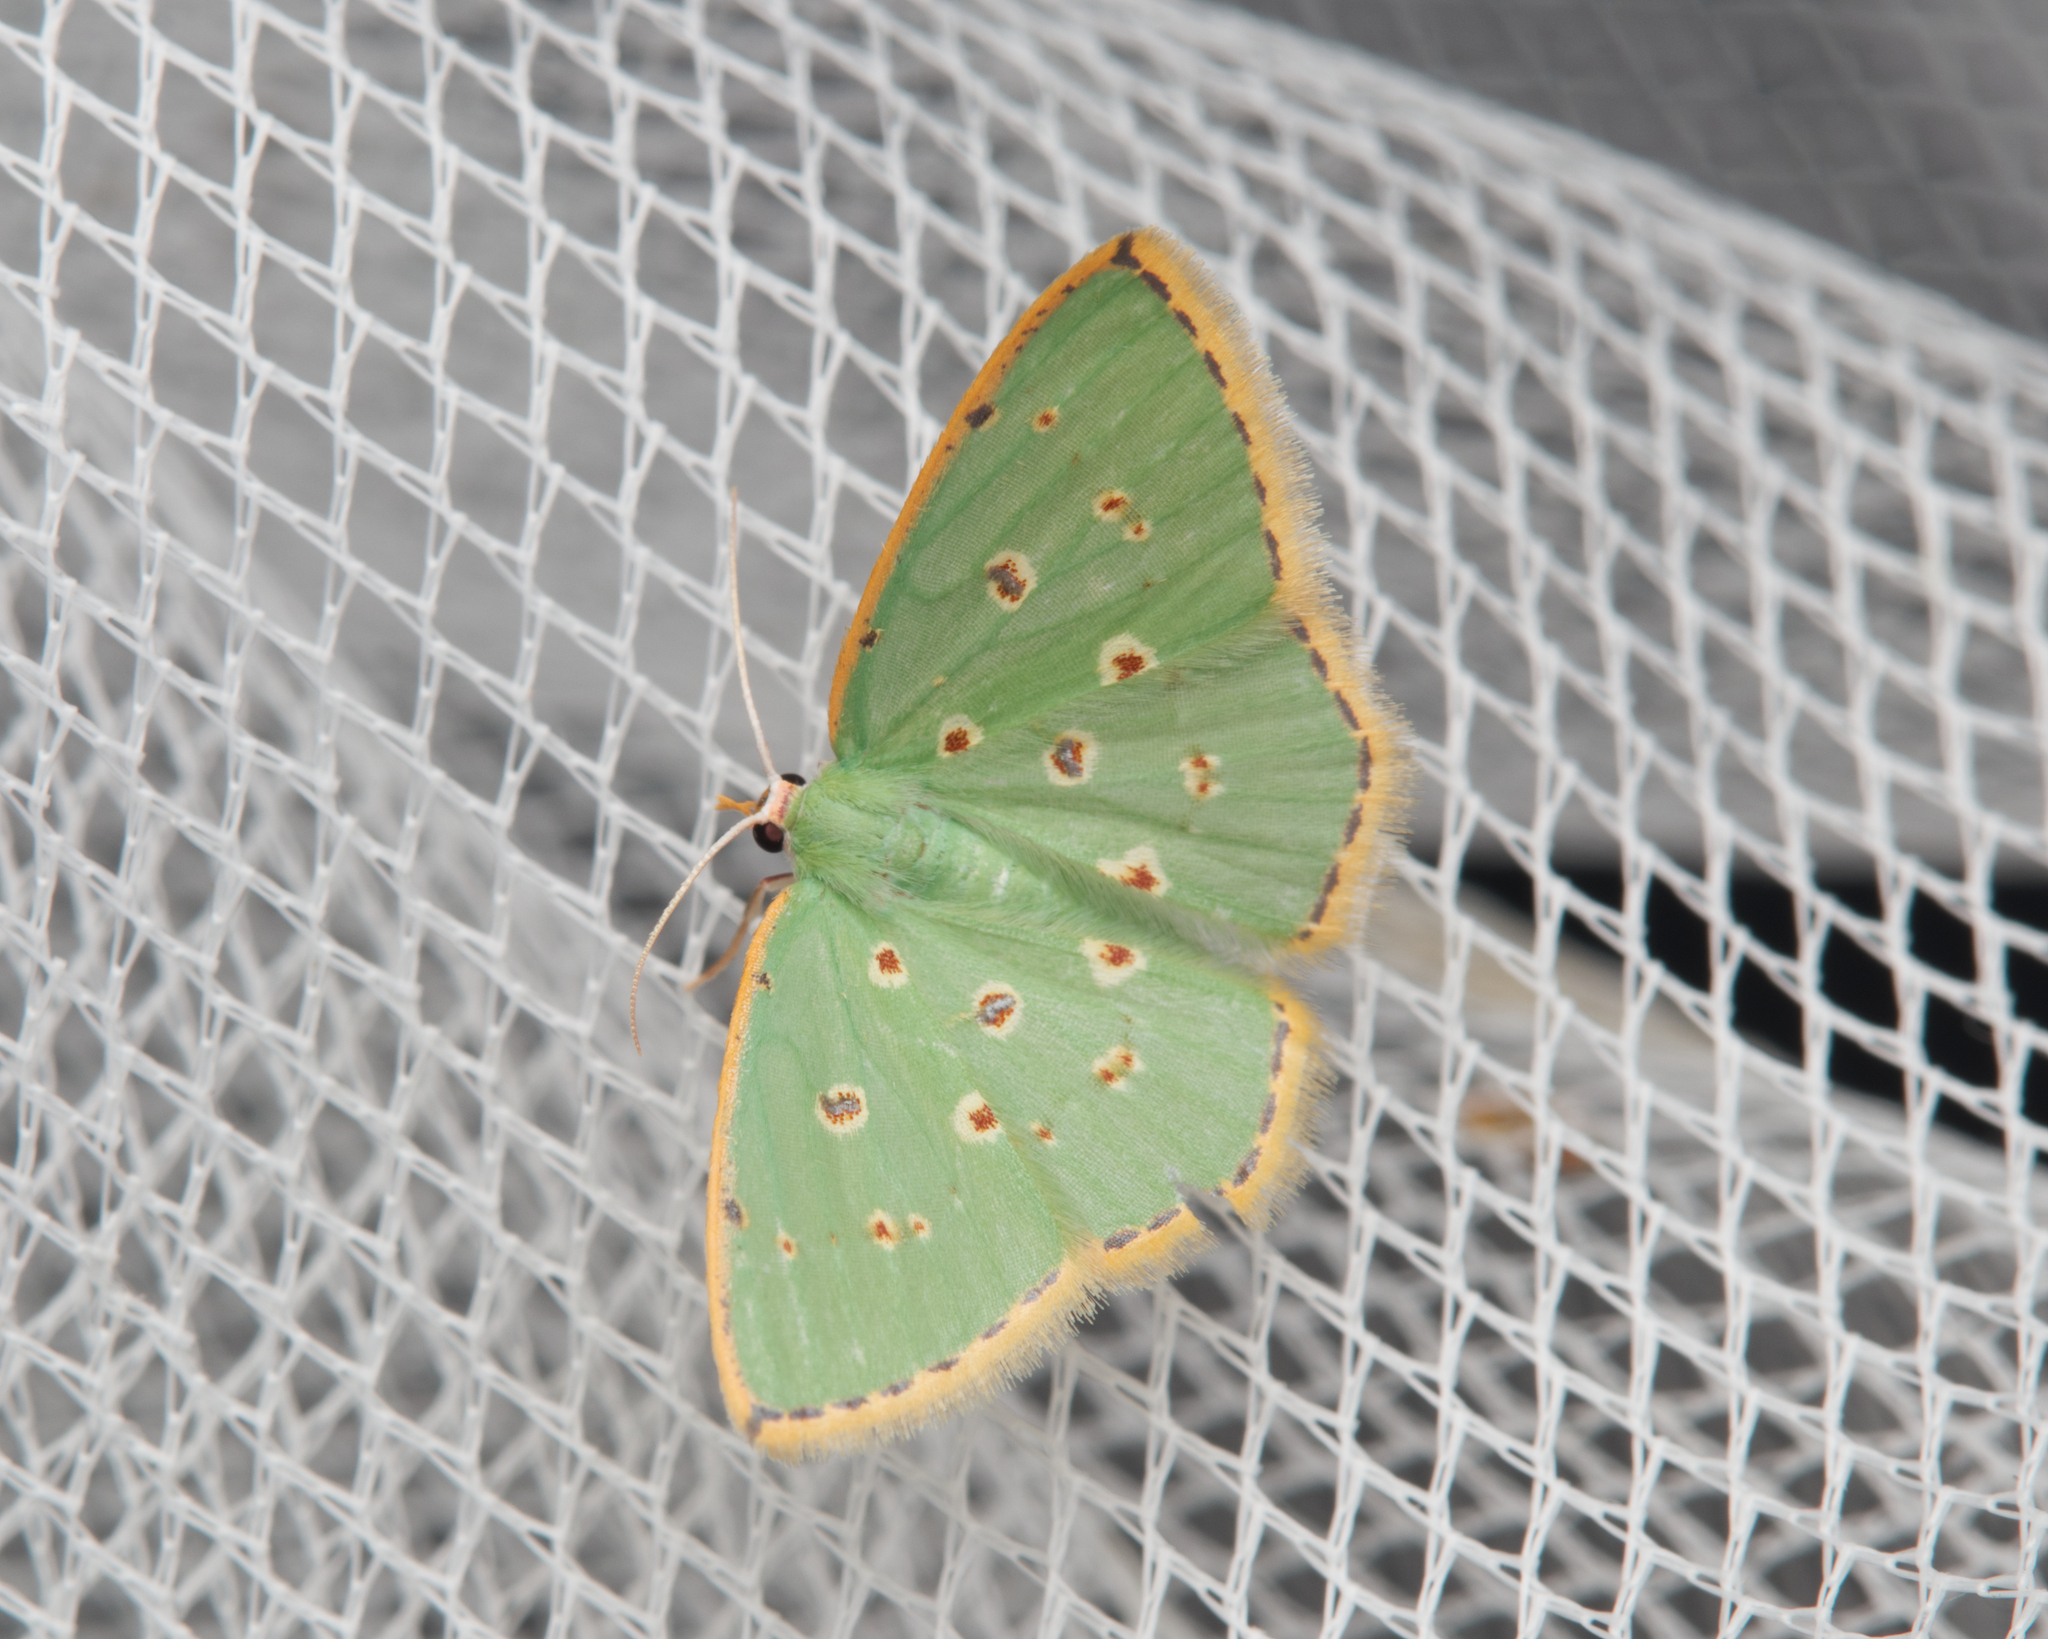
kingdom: Animalia
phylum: Arthropoda
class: Insecta
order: Lepidoptera
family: Geometridae
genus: Comostola
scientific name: Comostola laesaria
